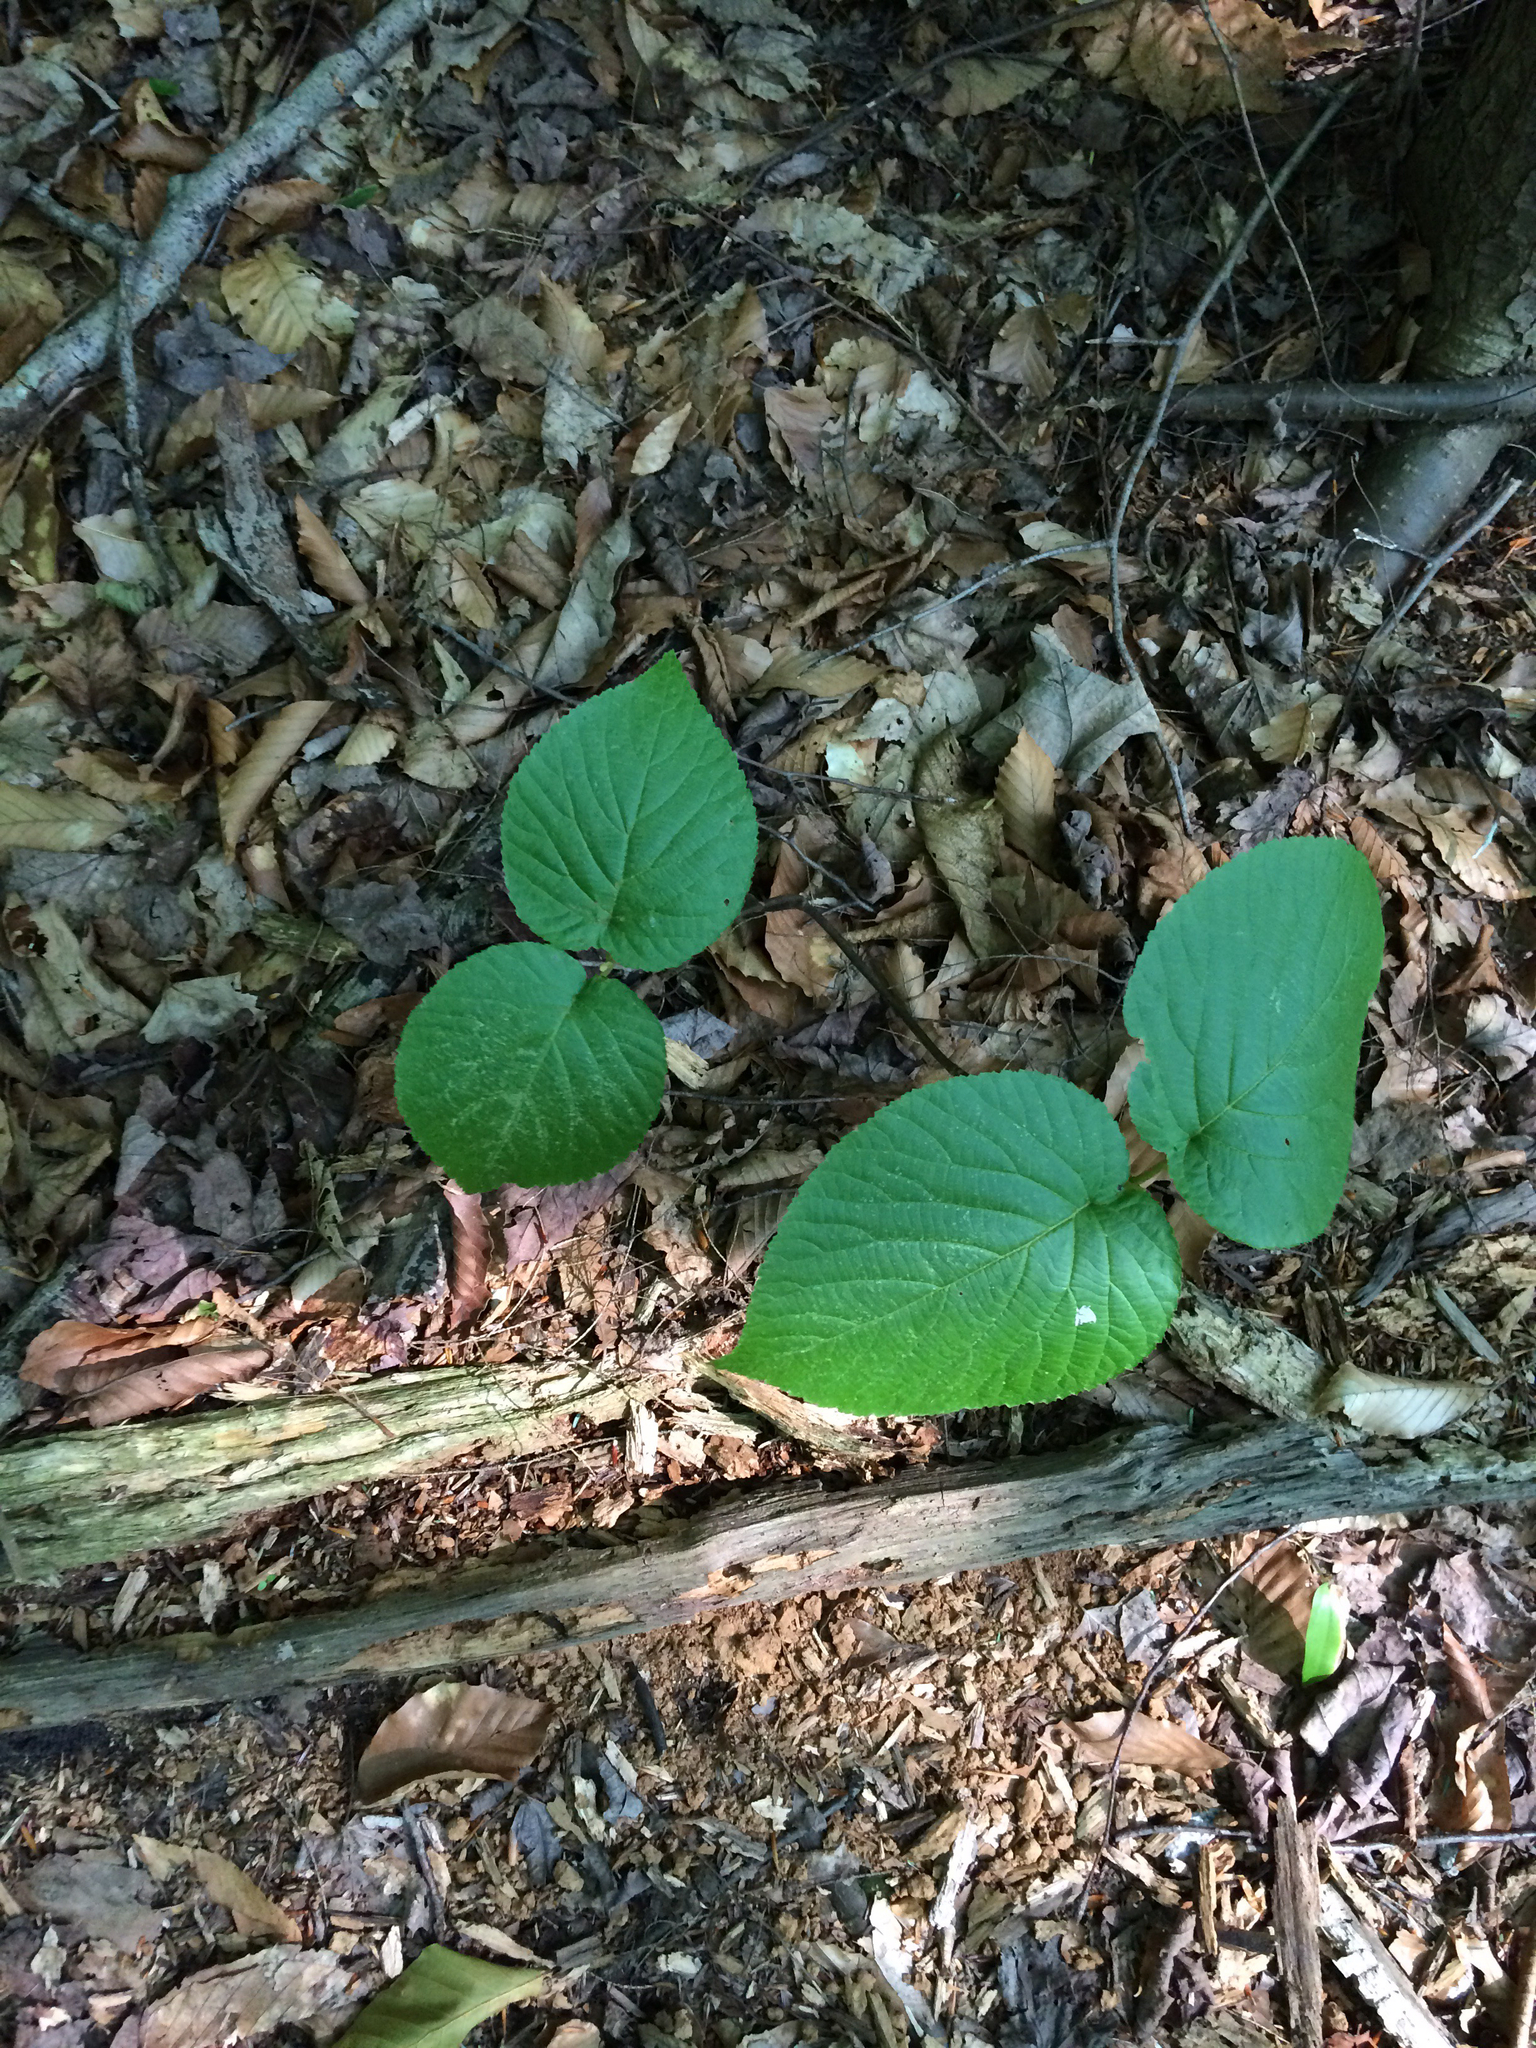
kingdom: Plantae
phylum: Tracheophyta
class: Magnoliopsida
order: Dipsacales
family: Viburnaceae
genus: Viburnum
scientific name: Viburnum lantanoides
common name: Hobblebush
